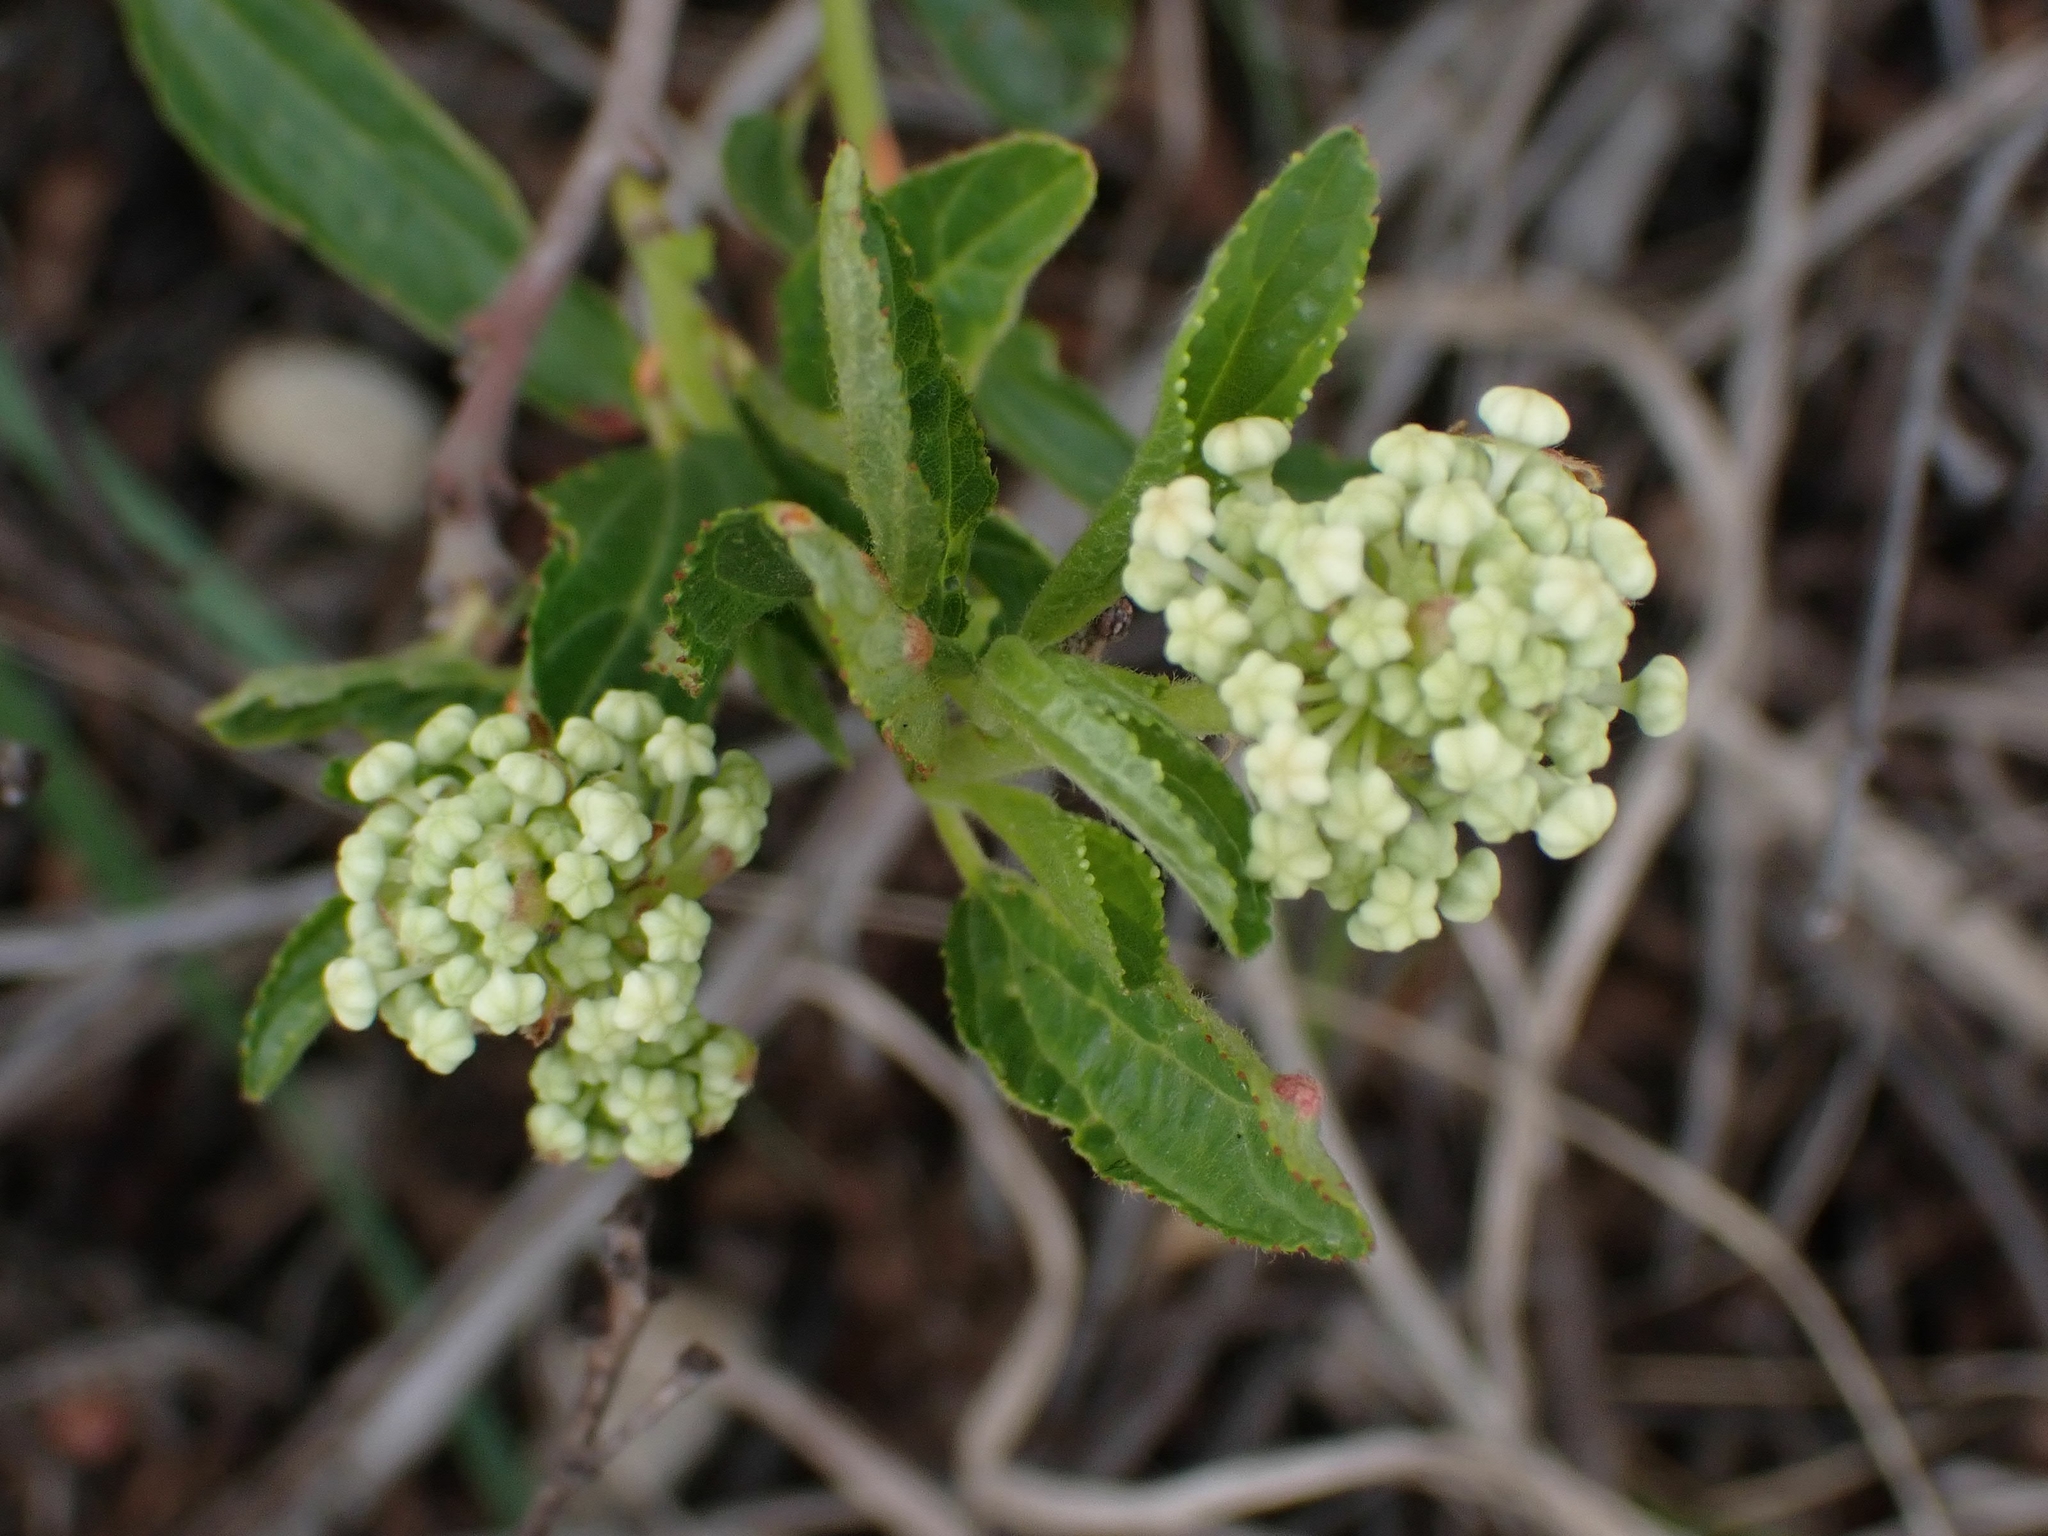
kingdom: Plantae
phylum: Tracheophyta
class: Magnoliopsida
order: Rosales
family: Rhamnaceae
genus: Ceanothus
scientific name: Ceanothus herbaceus
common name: Inland ceanothus
